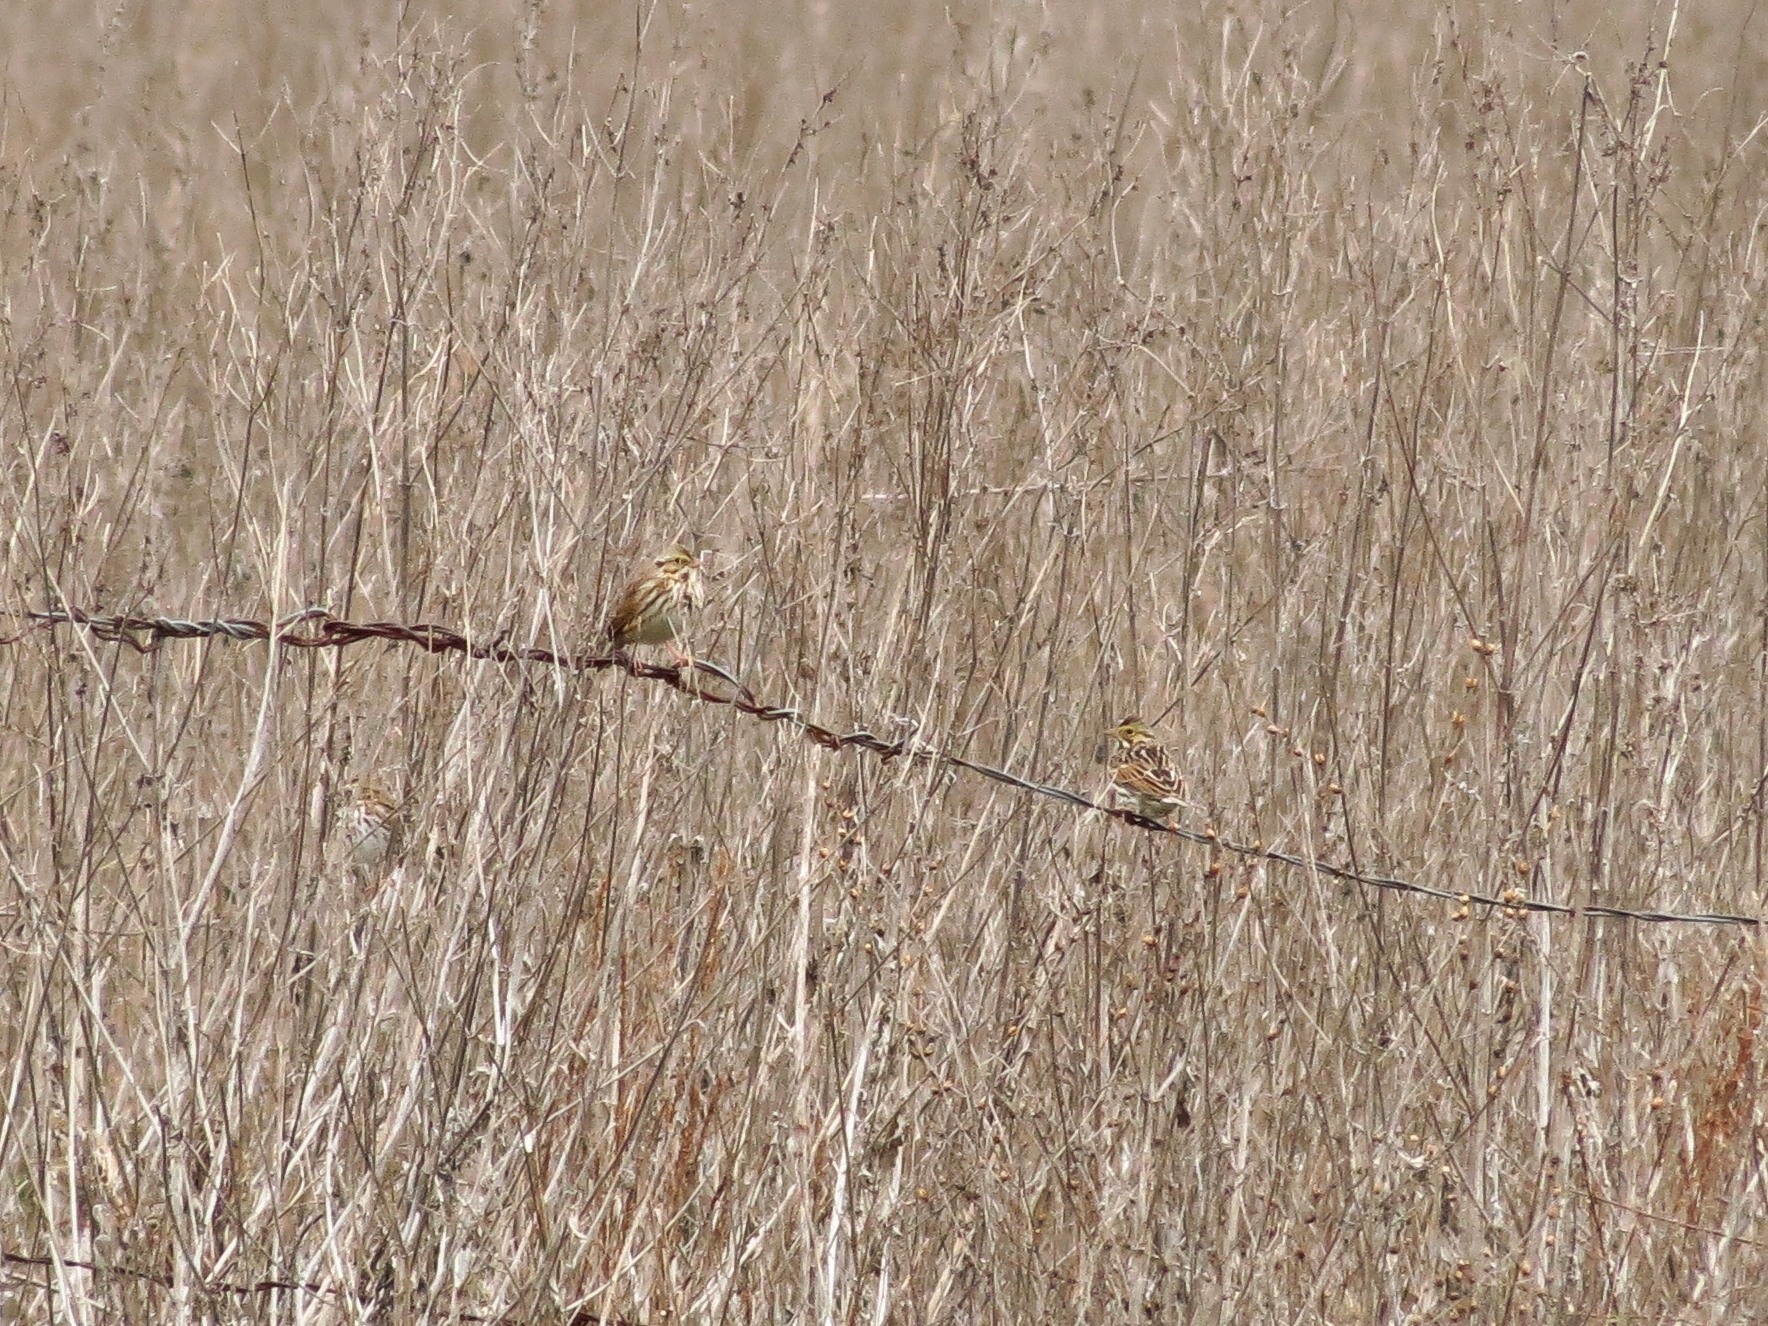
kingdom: Animalia
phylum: Chordata
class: Aves
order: Passeriformes
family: Passerellidae
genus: Passerculus
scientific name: Passerculus sandwichensis
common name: Savannah sparrow
